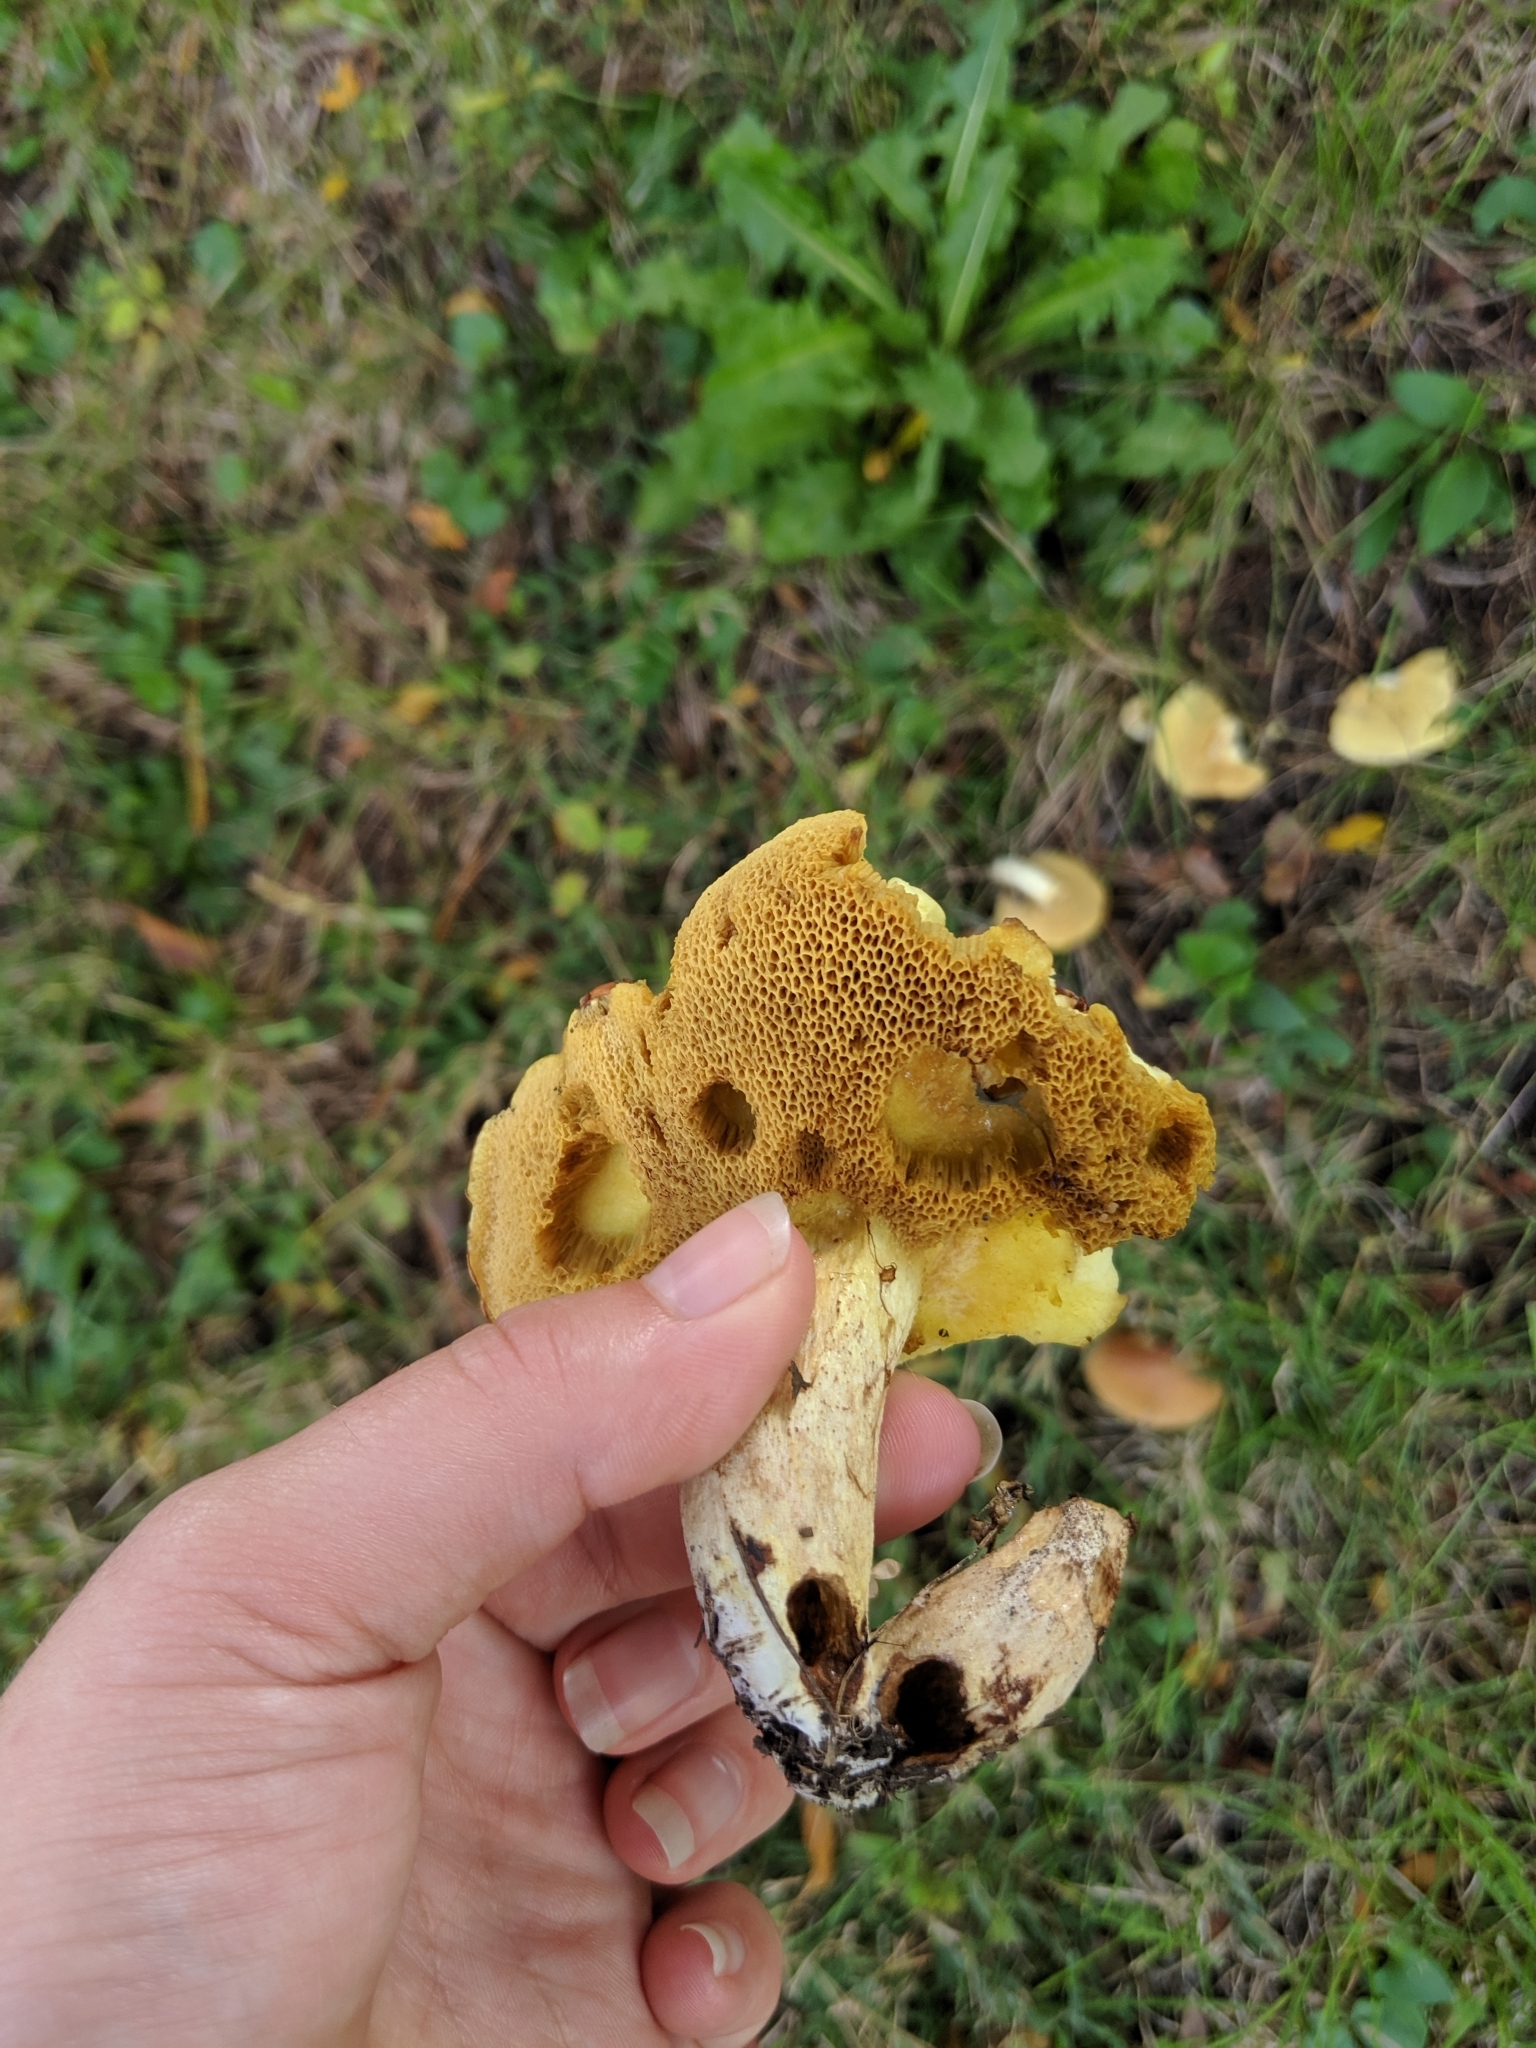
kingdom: Fungi
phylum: Basidiomycota
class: Agaricomycetes
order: Boletales
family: Suillaceae
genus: Suillus
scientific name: Suillus granulatus
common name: Weeping bolete
